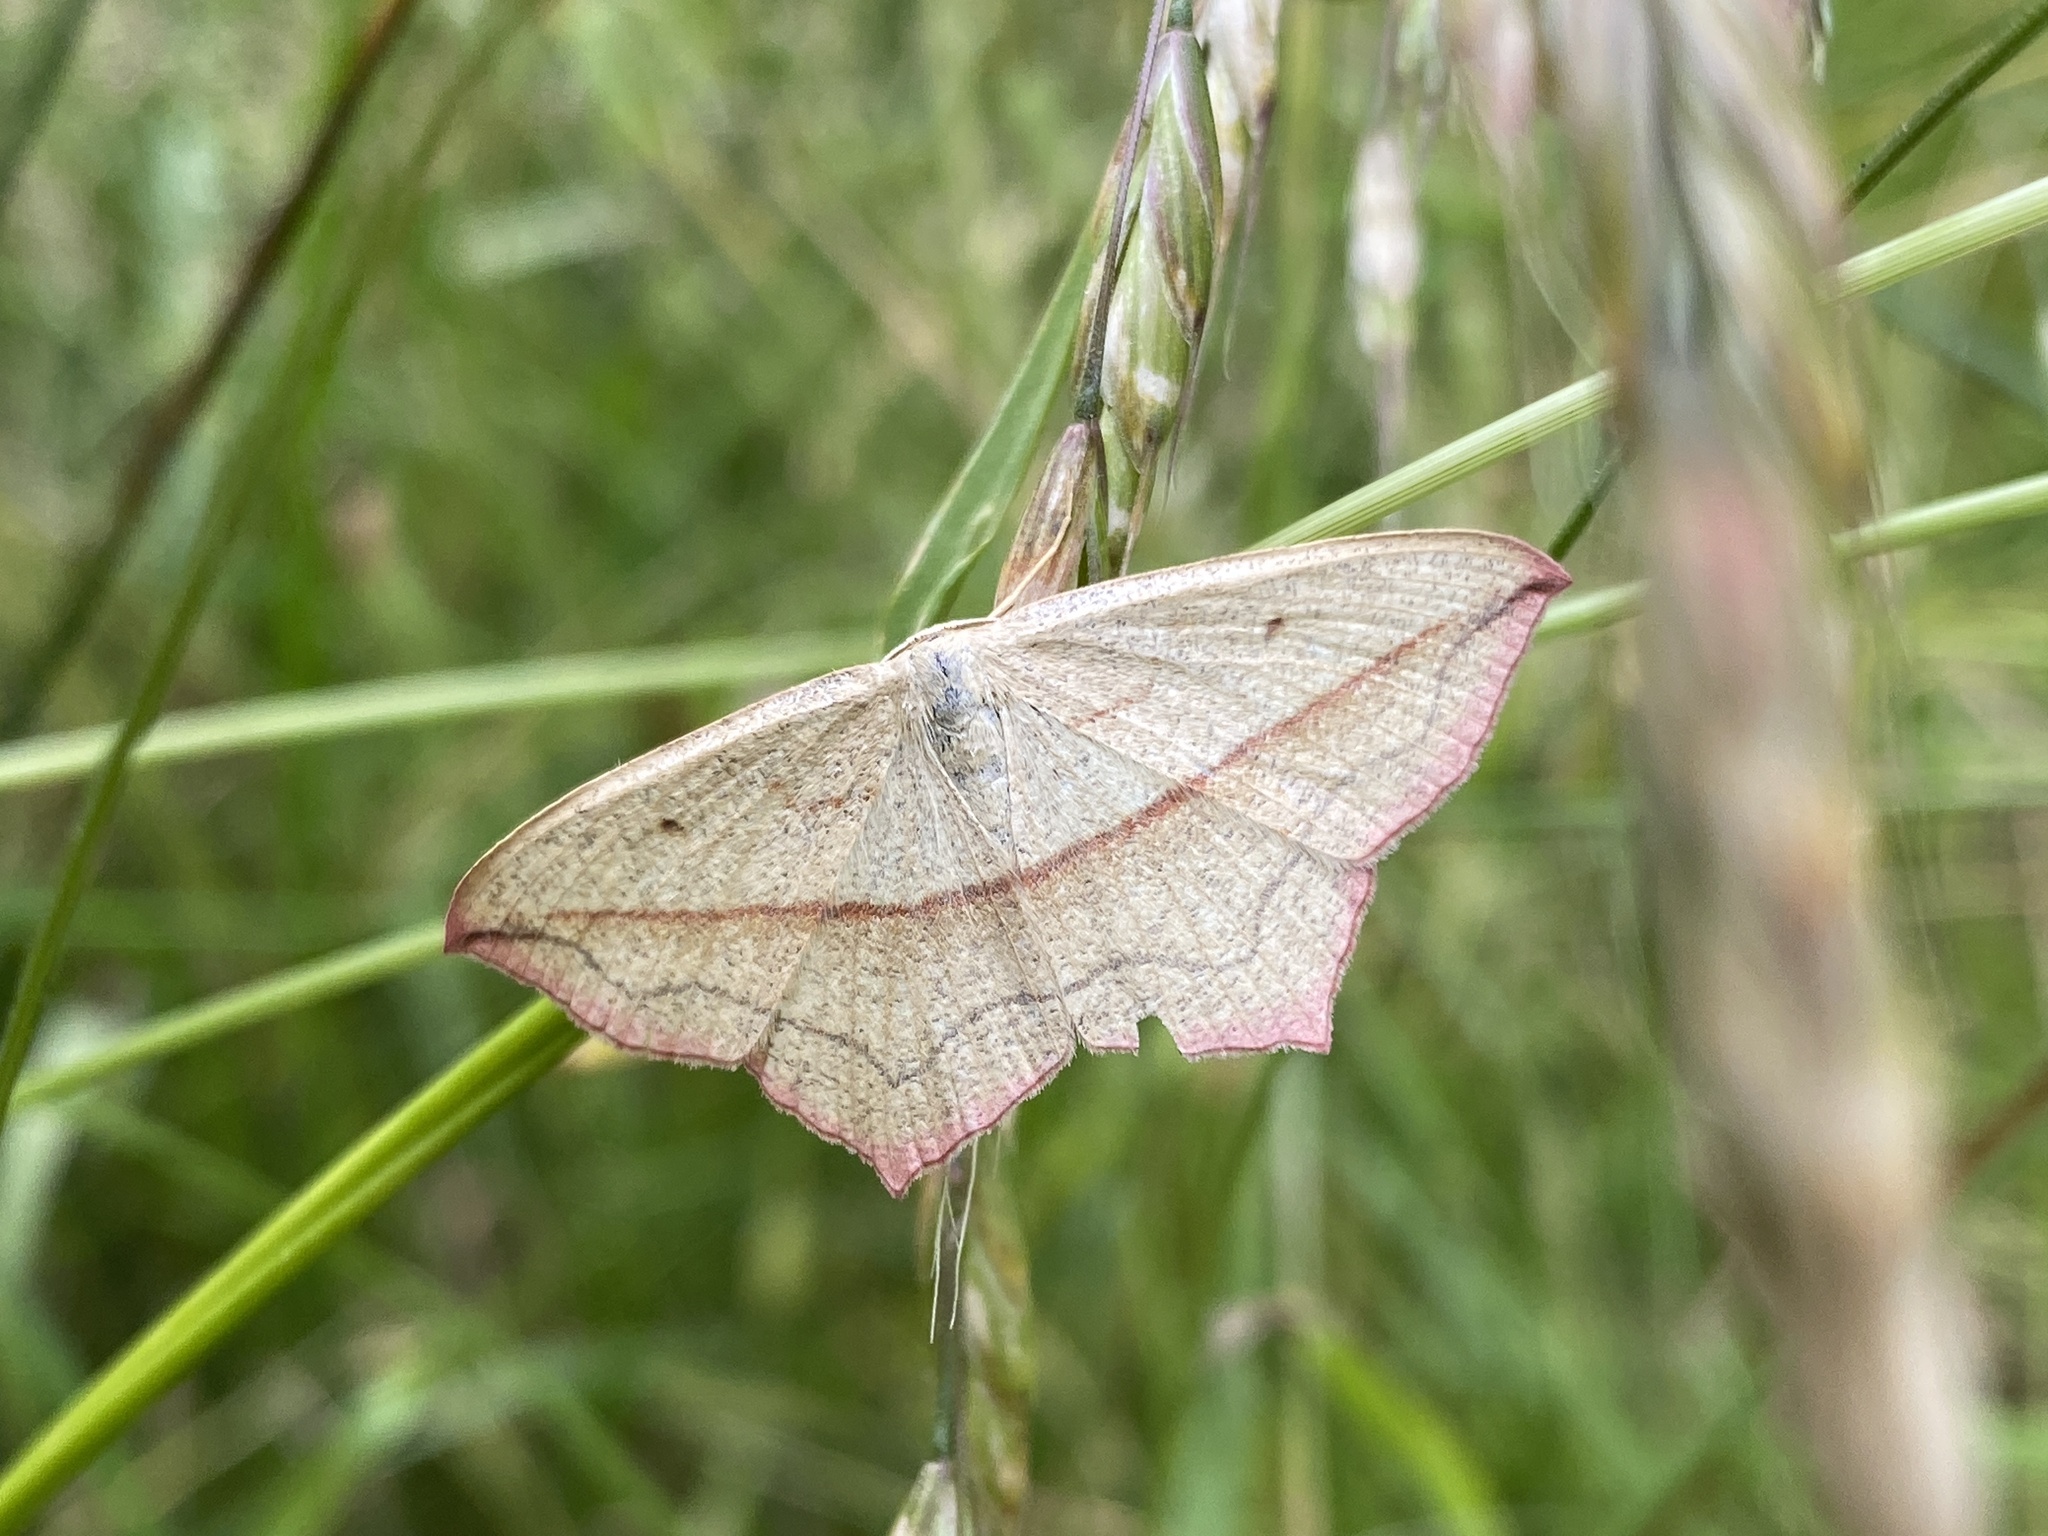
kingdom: Animalia
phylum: Arthropoda
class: Insecta
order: Lepidoptera
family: Geometridae
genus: Timandra
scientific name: Timandra comae
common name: Blood-vein
